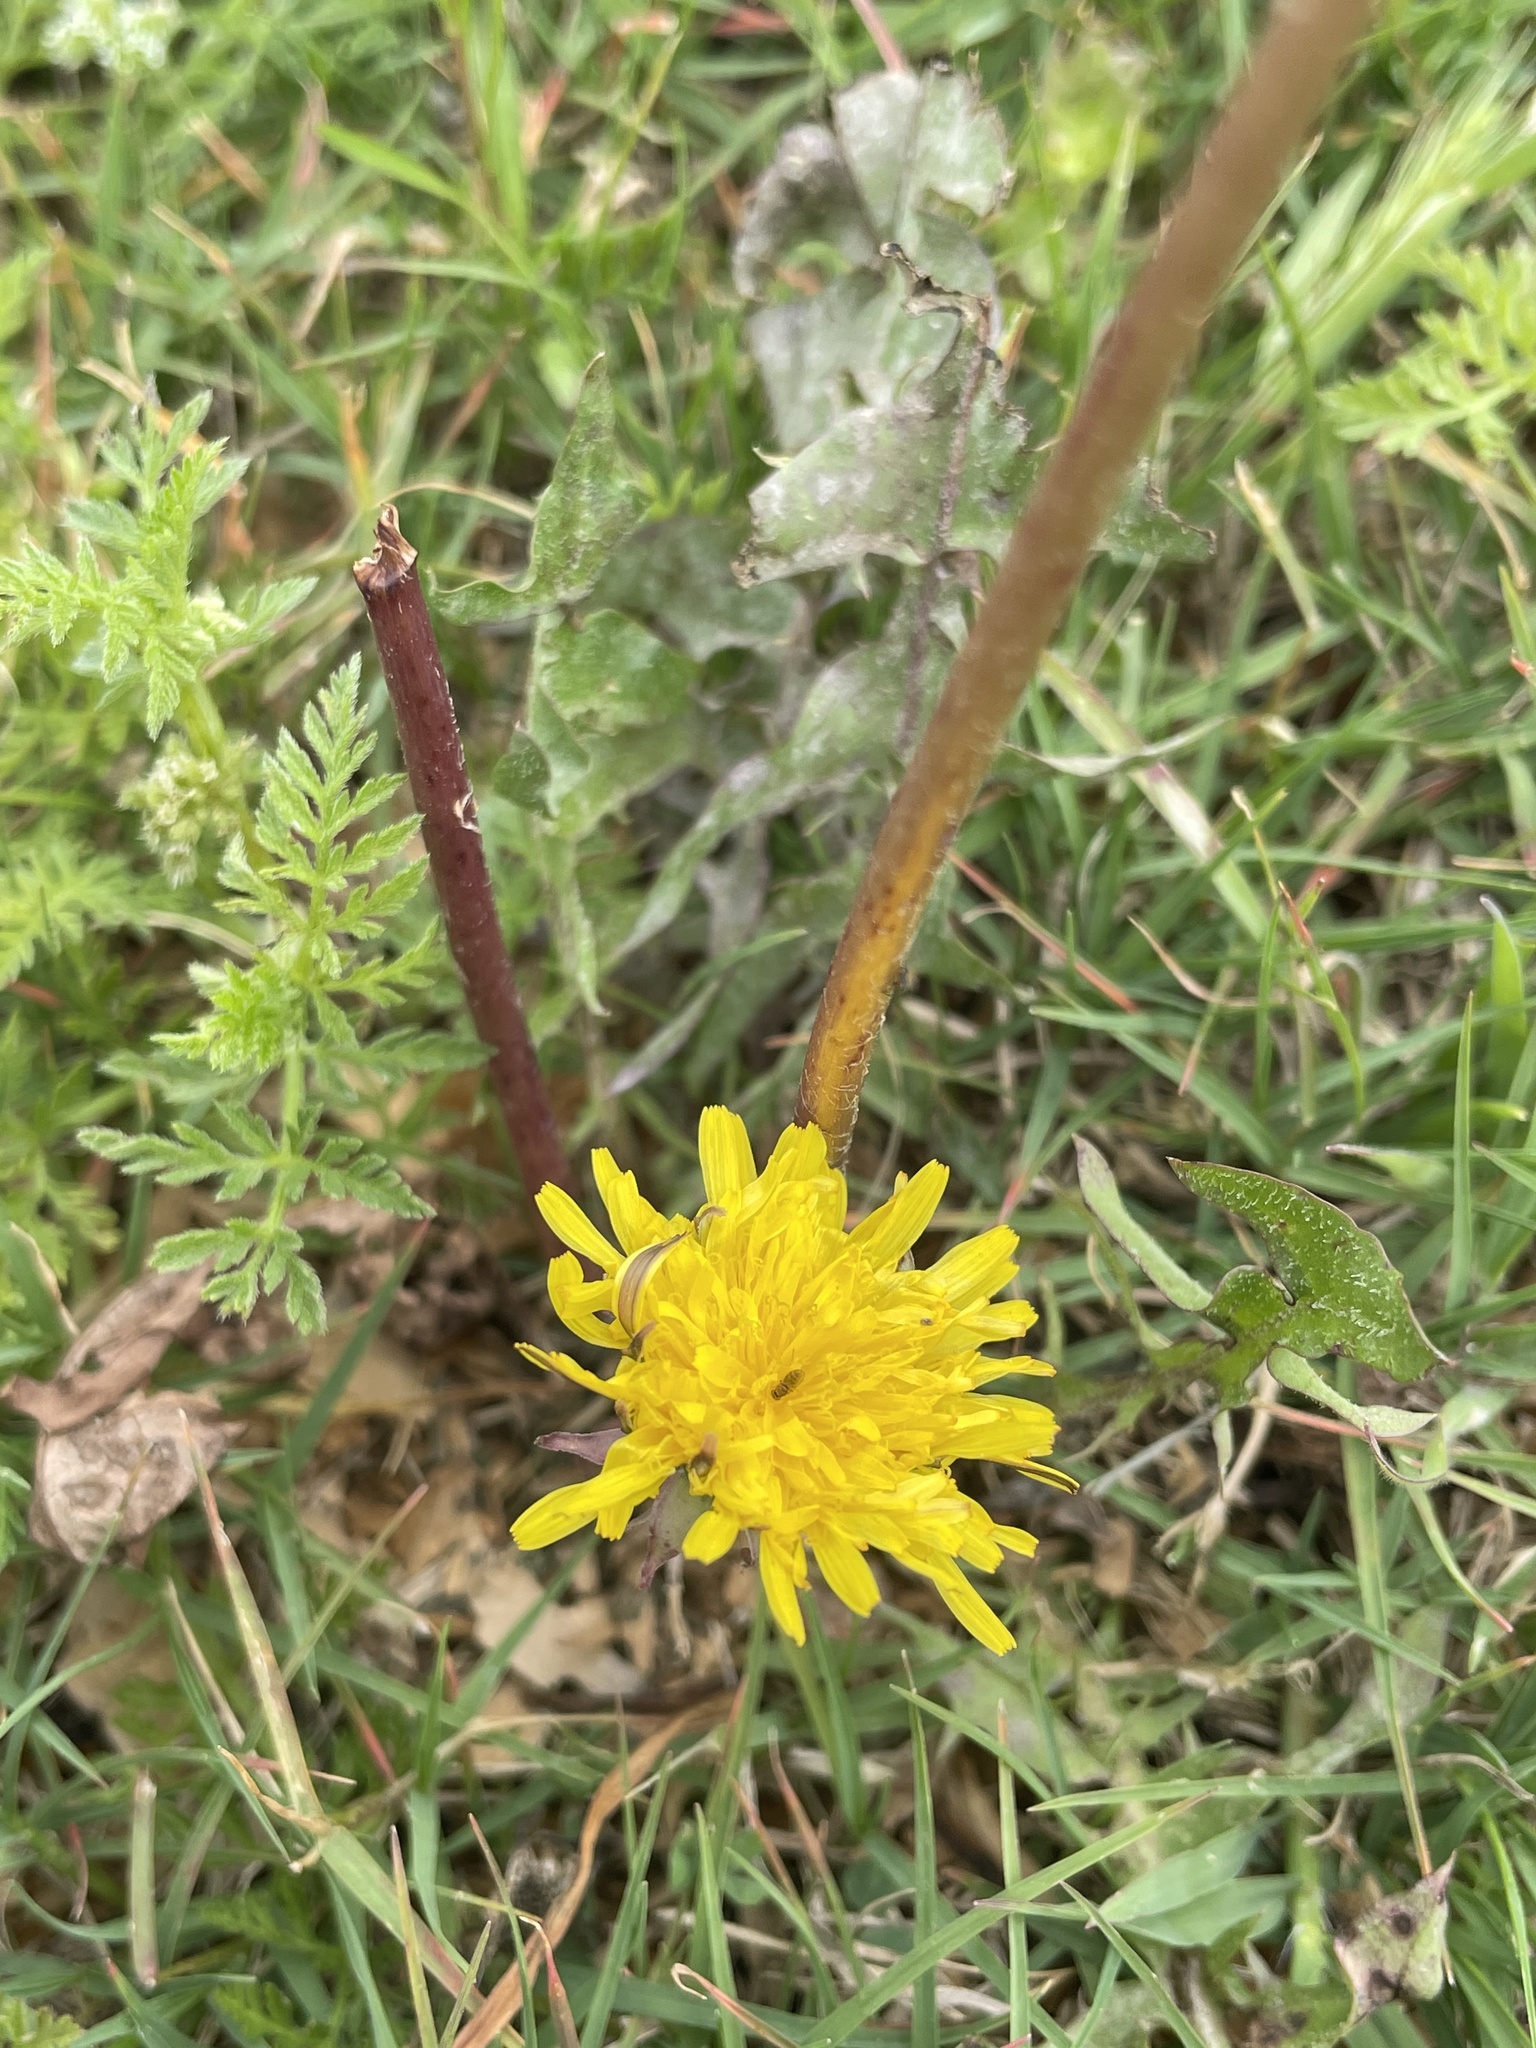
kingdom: Plantae
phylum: Tracheophyta
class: Magnoliopsida
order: Asterales
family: Asteraceae
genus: Taraxacum
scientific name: Taraxacum officinale
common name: Common dandelion
